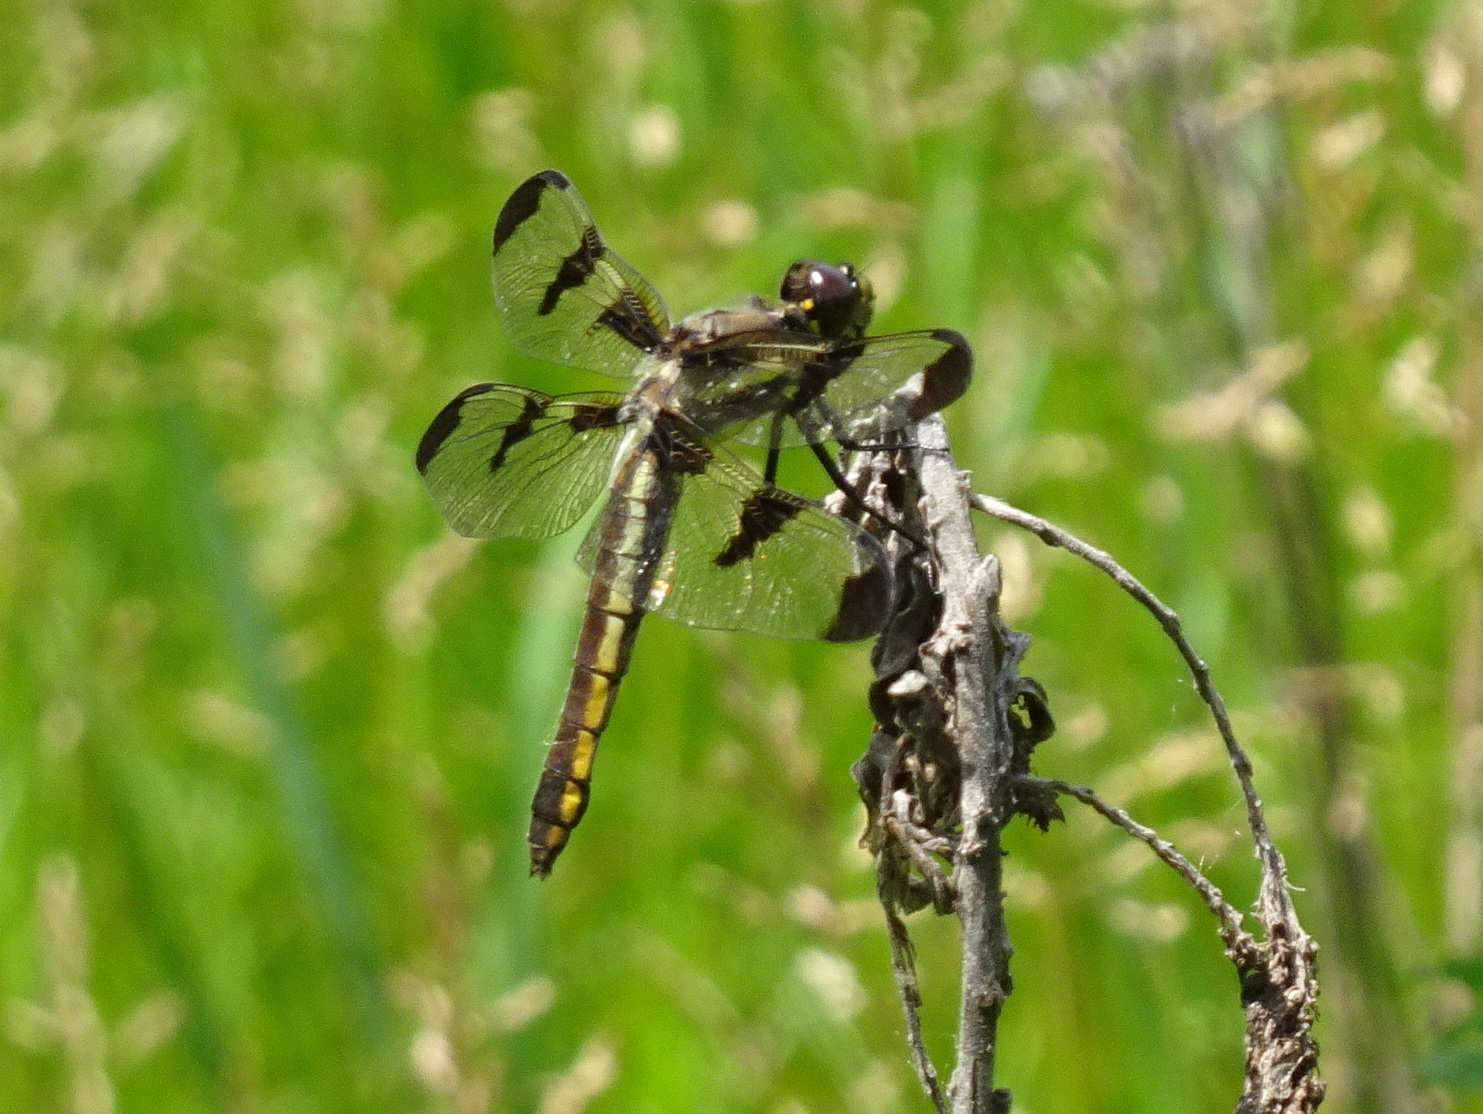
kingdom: Animalia
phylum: Arthropoda
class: Insecta
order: Odonata
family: Libellulidae
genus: Libellula
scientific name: Libellula pulchella
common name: Twelve-spotted skimmer
